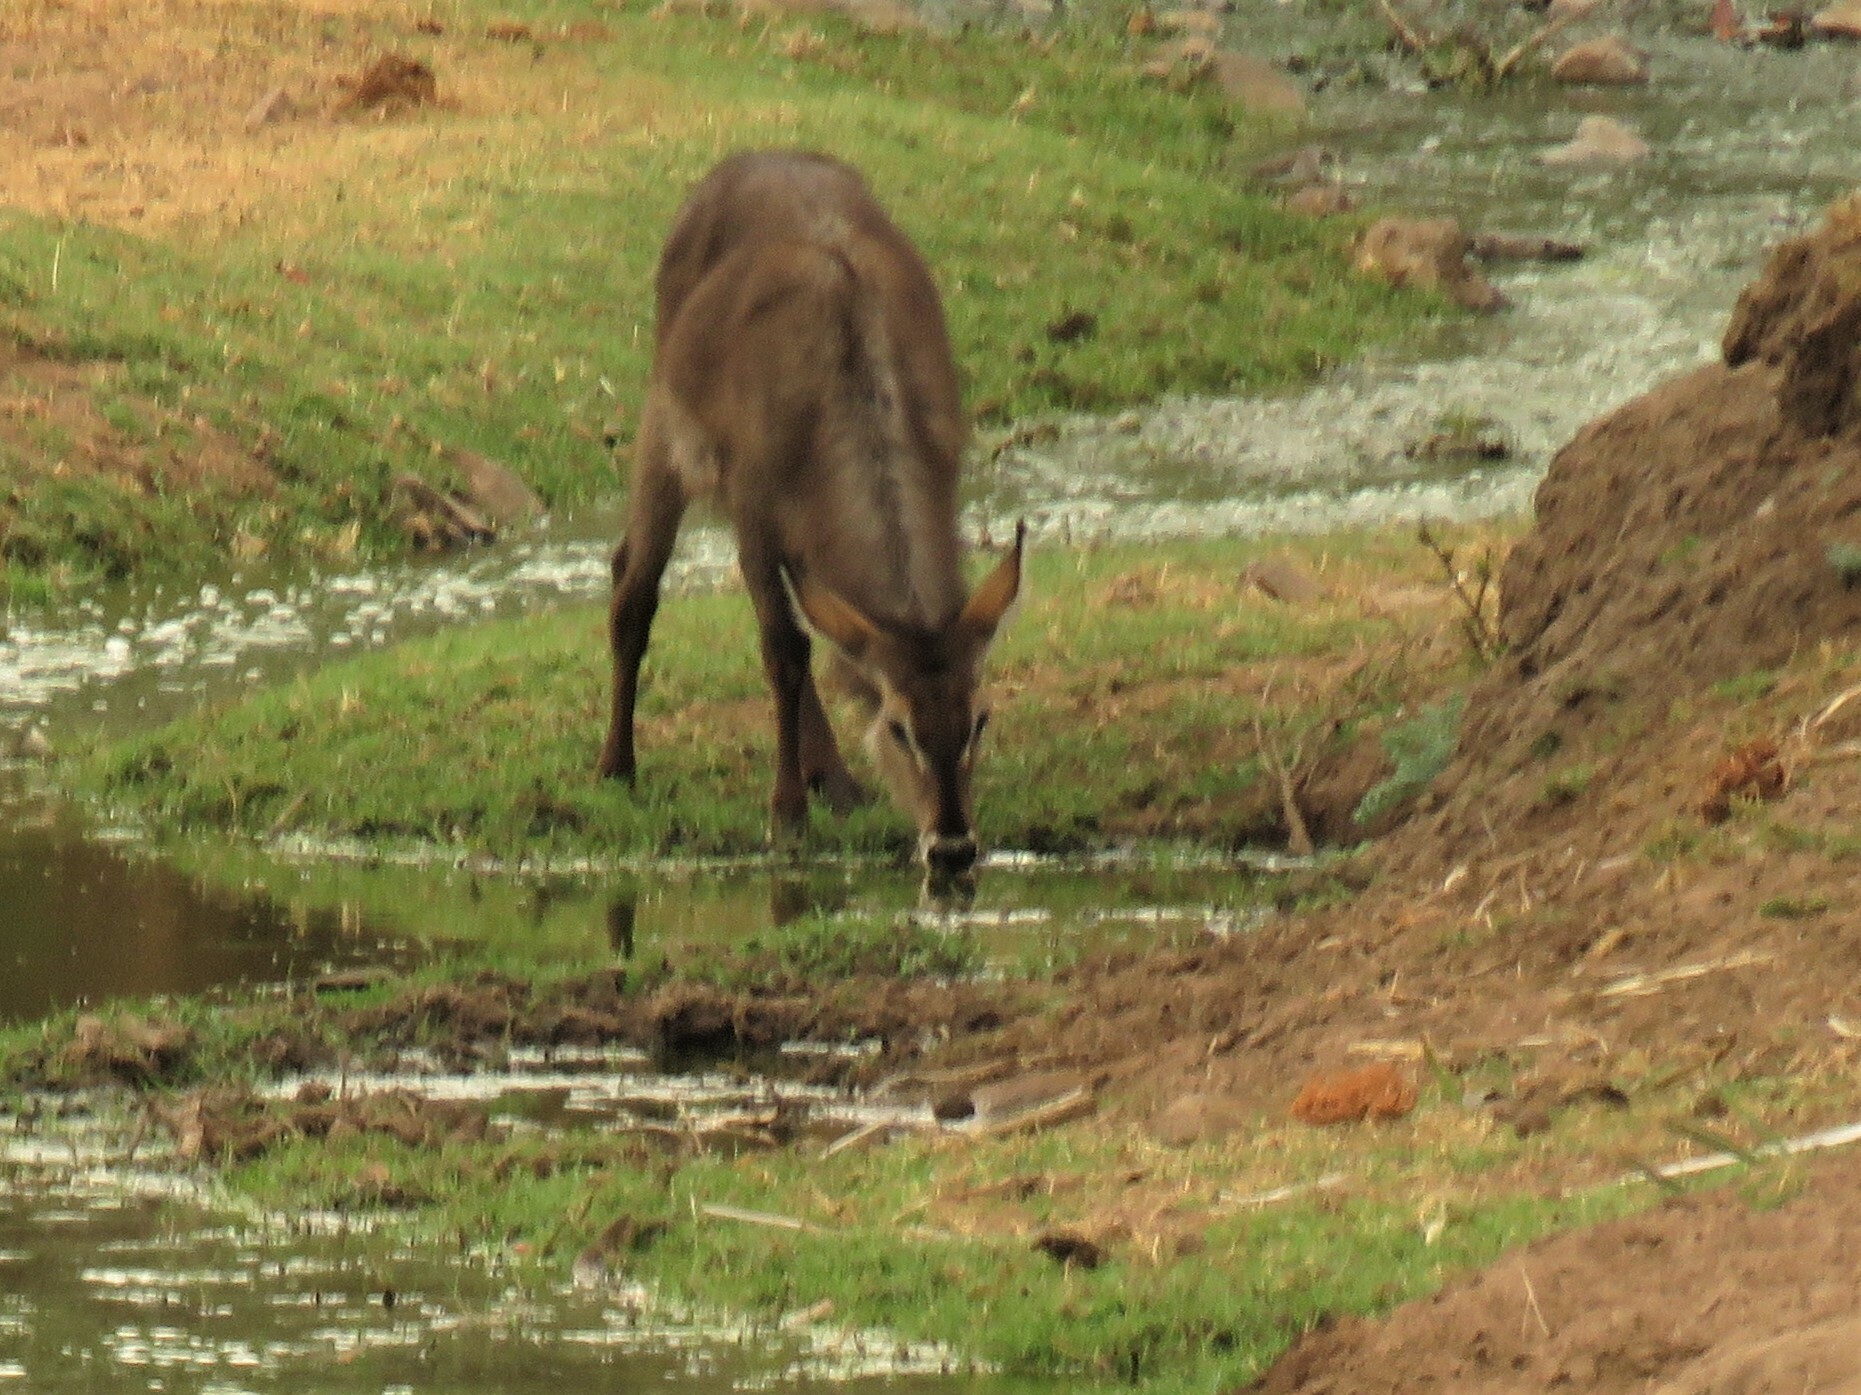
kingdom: Animalia
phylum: Chordata
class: Mammalia
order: Artiodactyla
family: Bovidae
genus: Kobus
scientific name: Kobus ellipsiprymnus
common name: Waterbuck
